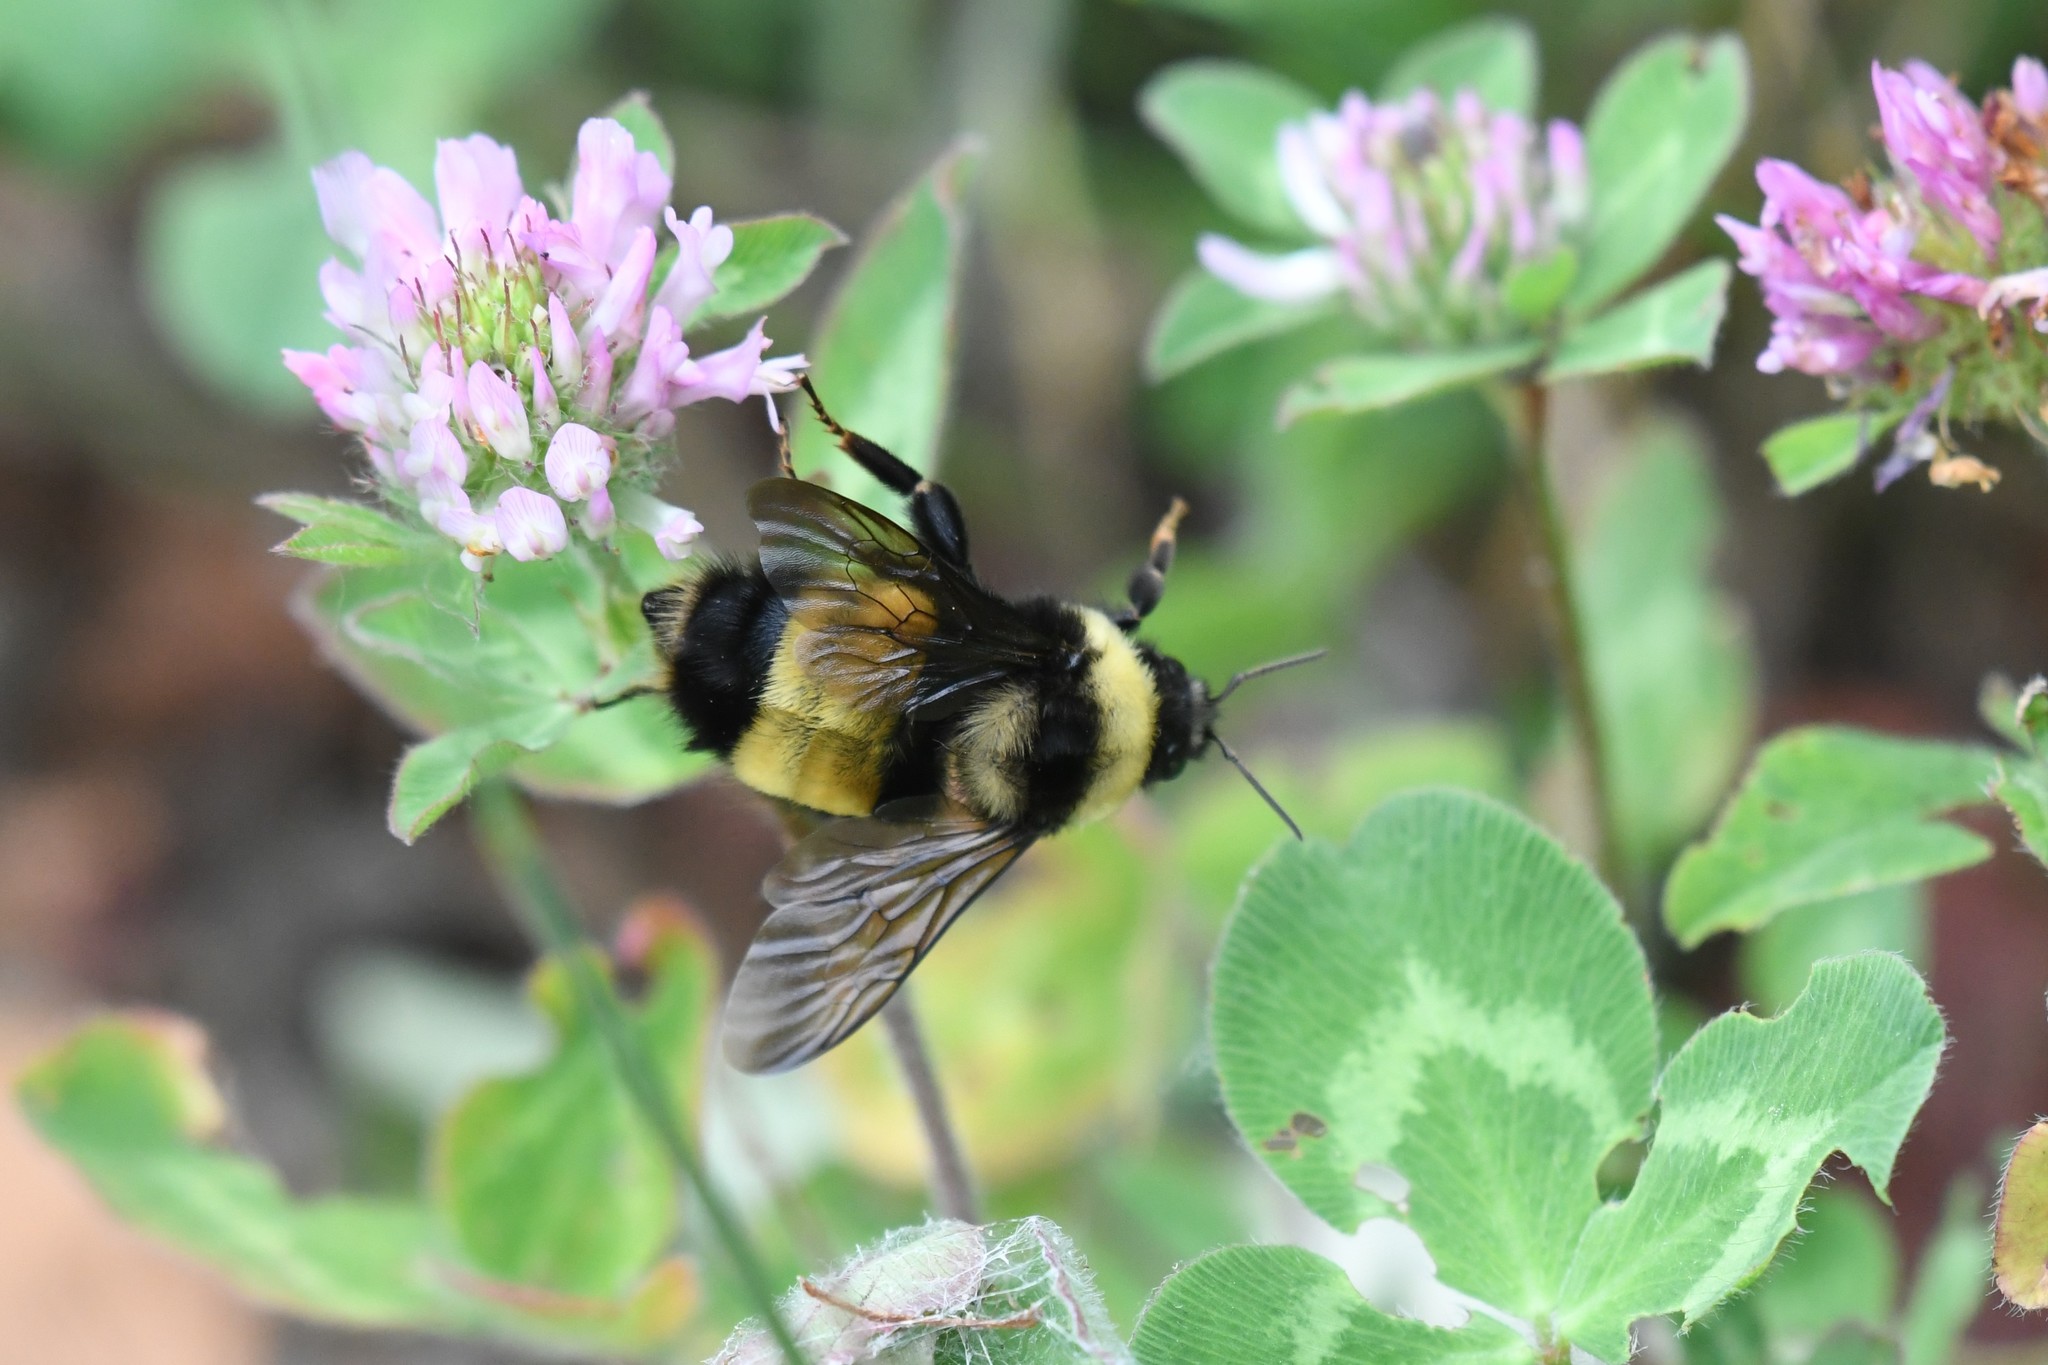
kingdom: Animalia
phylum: Arthropoda
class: Insecta
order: Hymenoptera
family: Apidae
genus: Bombus
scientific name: Bombus terricola
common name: Yellow-banded bumble bee
